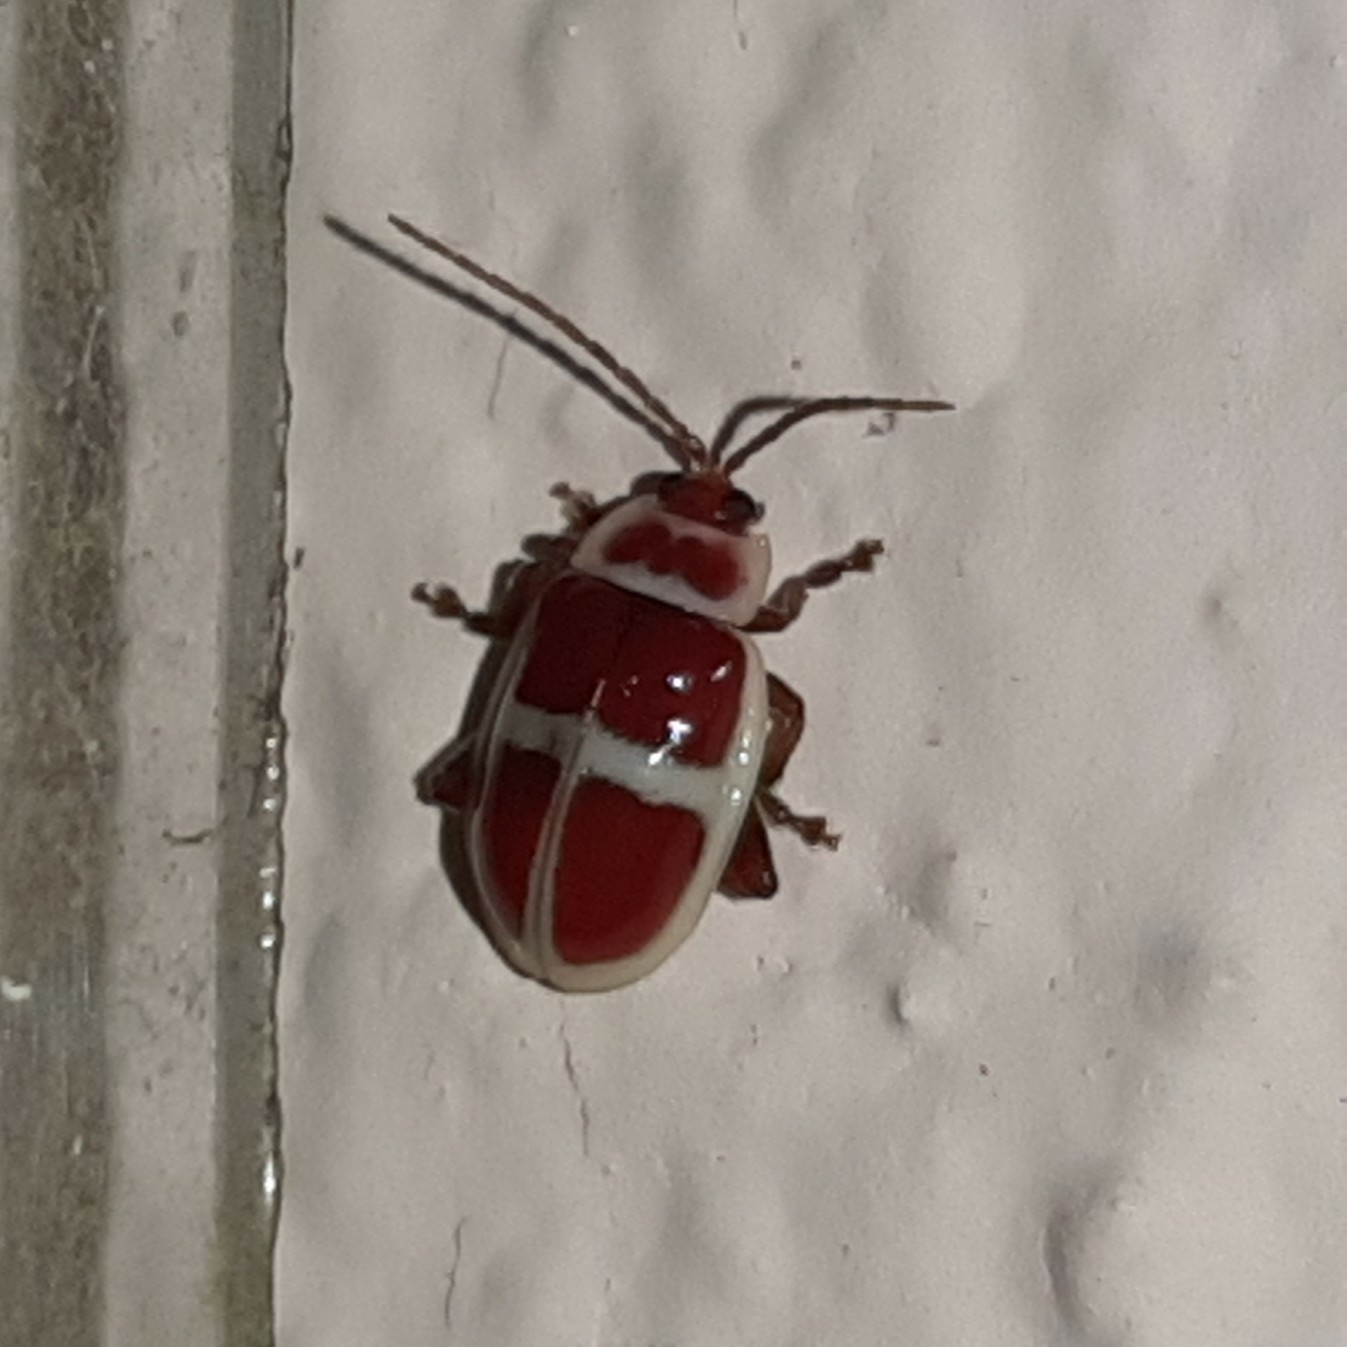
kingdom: Animalia
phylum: Arthropoda
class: Insecta
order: Coleoptera
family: Chrysomelidae
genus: Asphaera
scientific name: Asphaera discicollis
